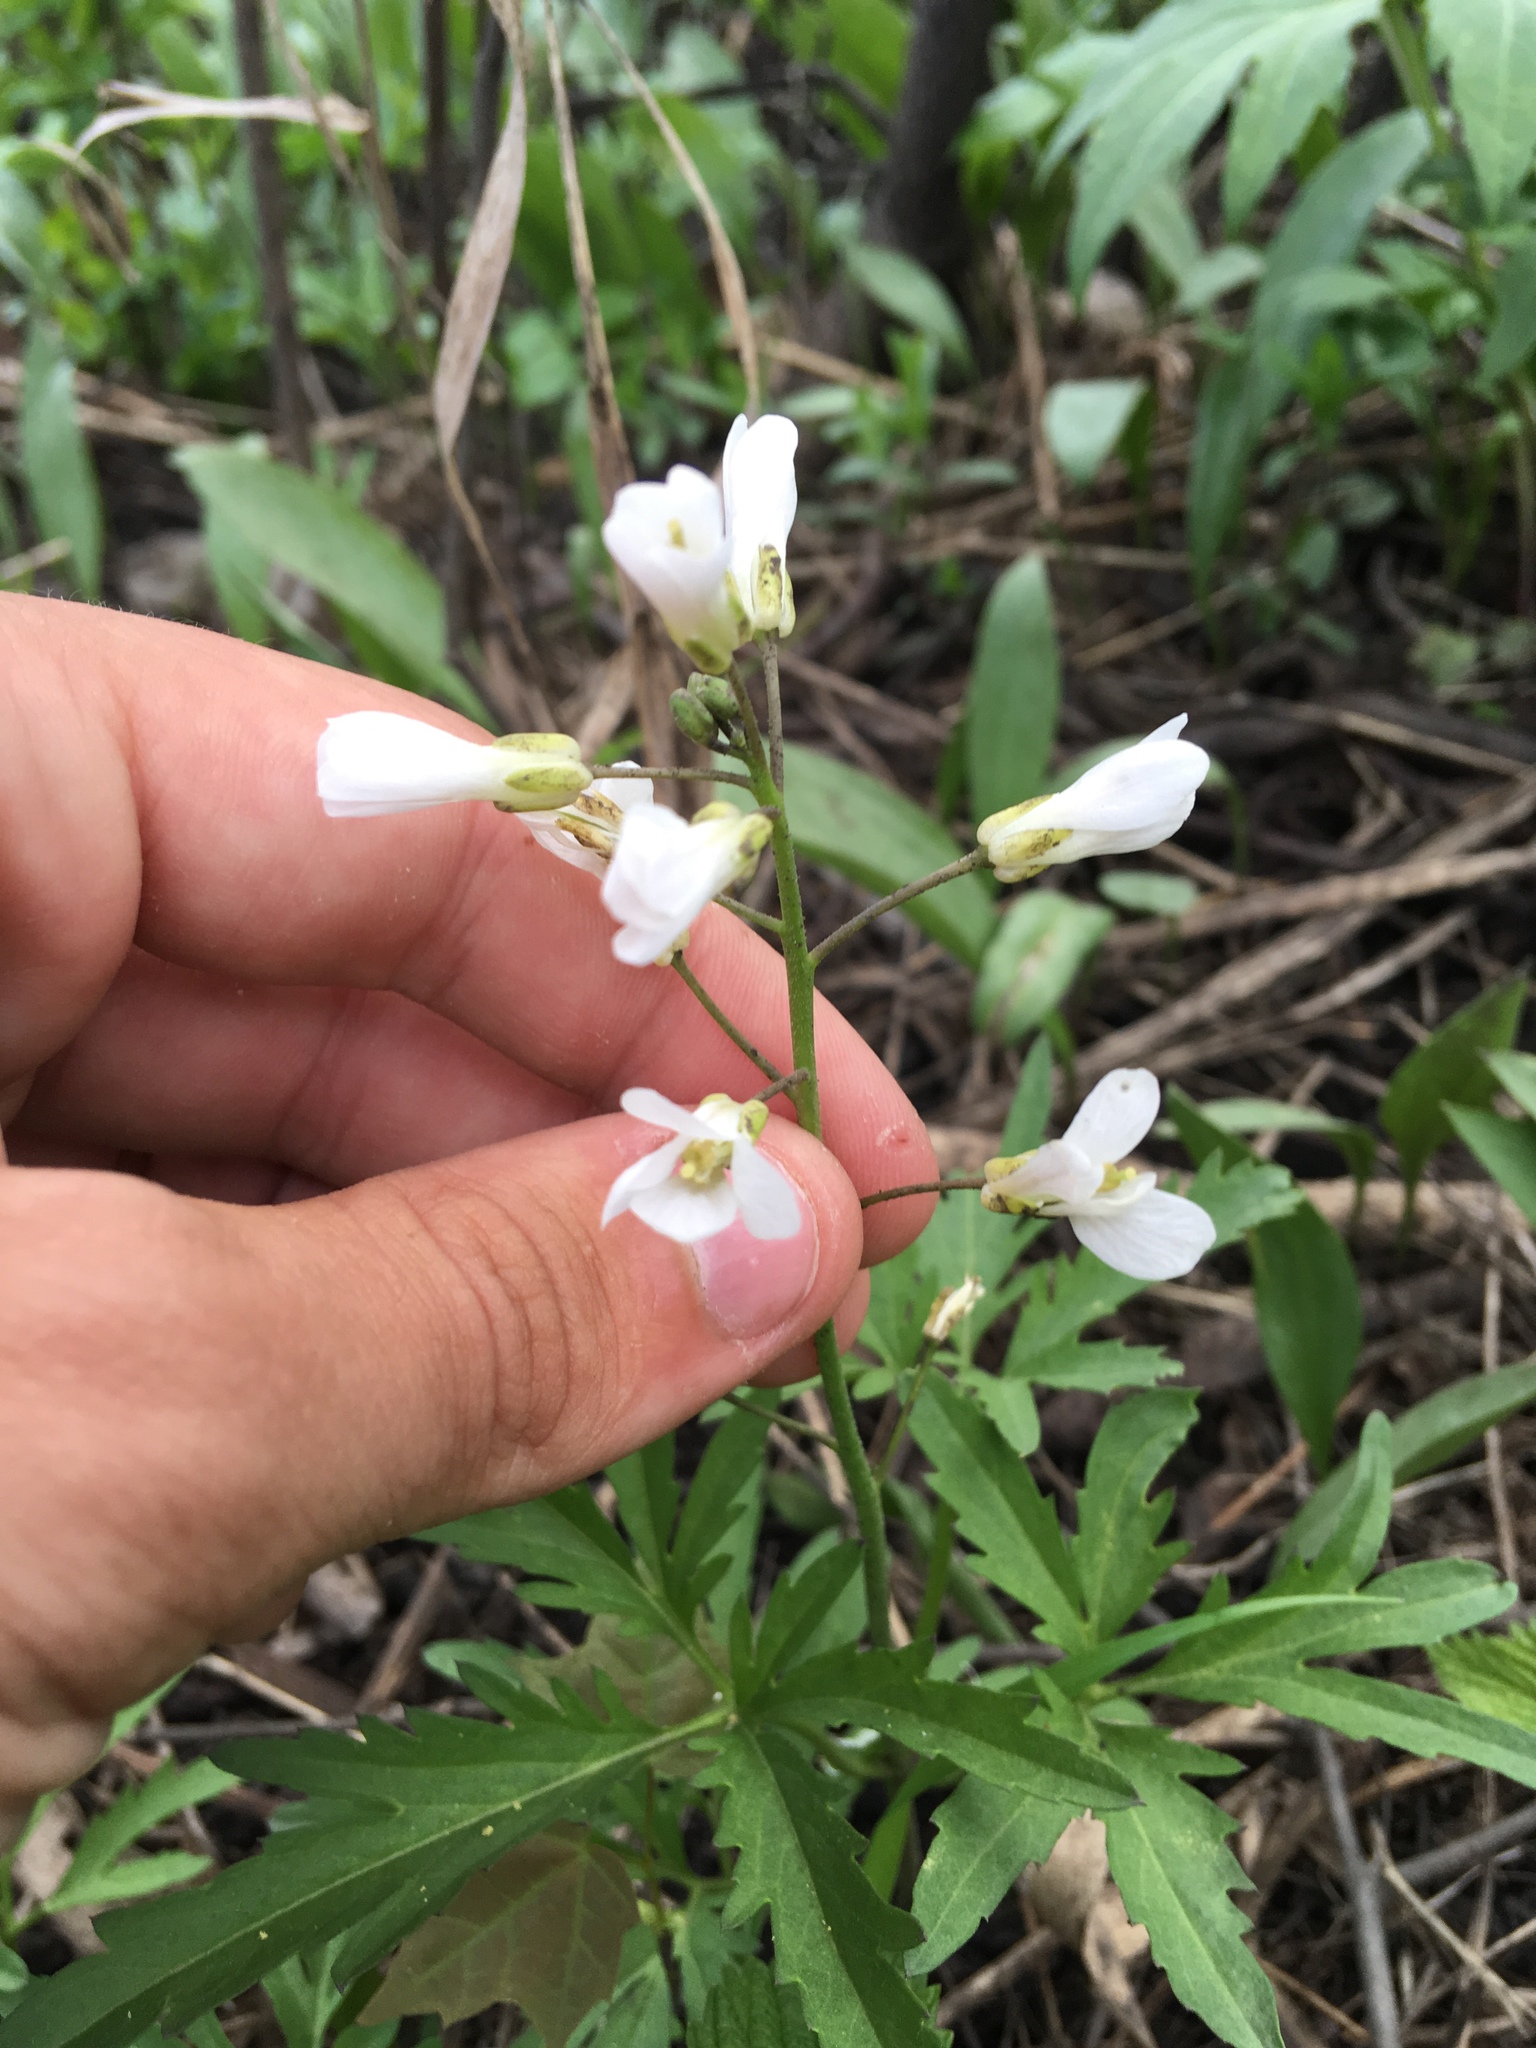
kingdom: Plantae
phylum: Tracheophyta
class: Magnoliopsida
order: Brassicales
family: Brassicaceae
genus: Cardamine
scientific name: Cardamine concatenata
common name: Cut-leaf toothcup
